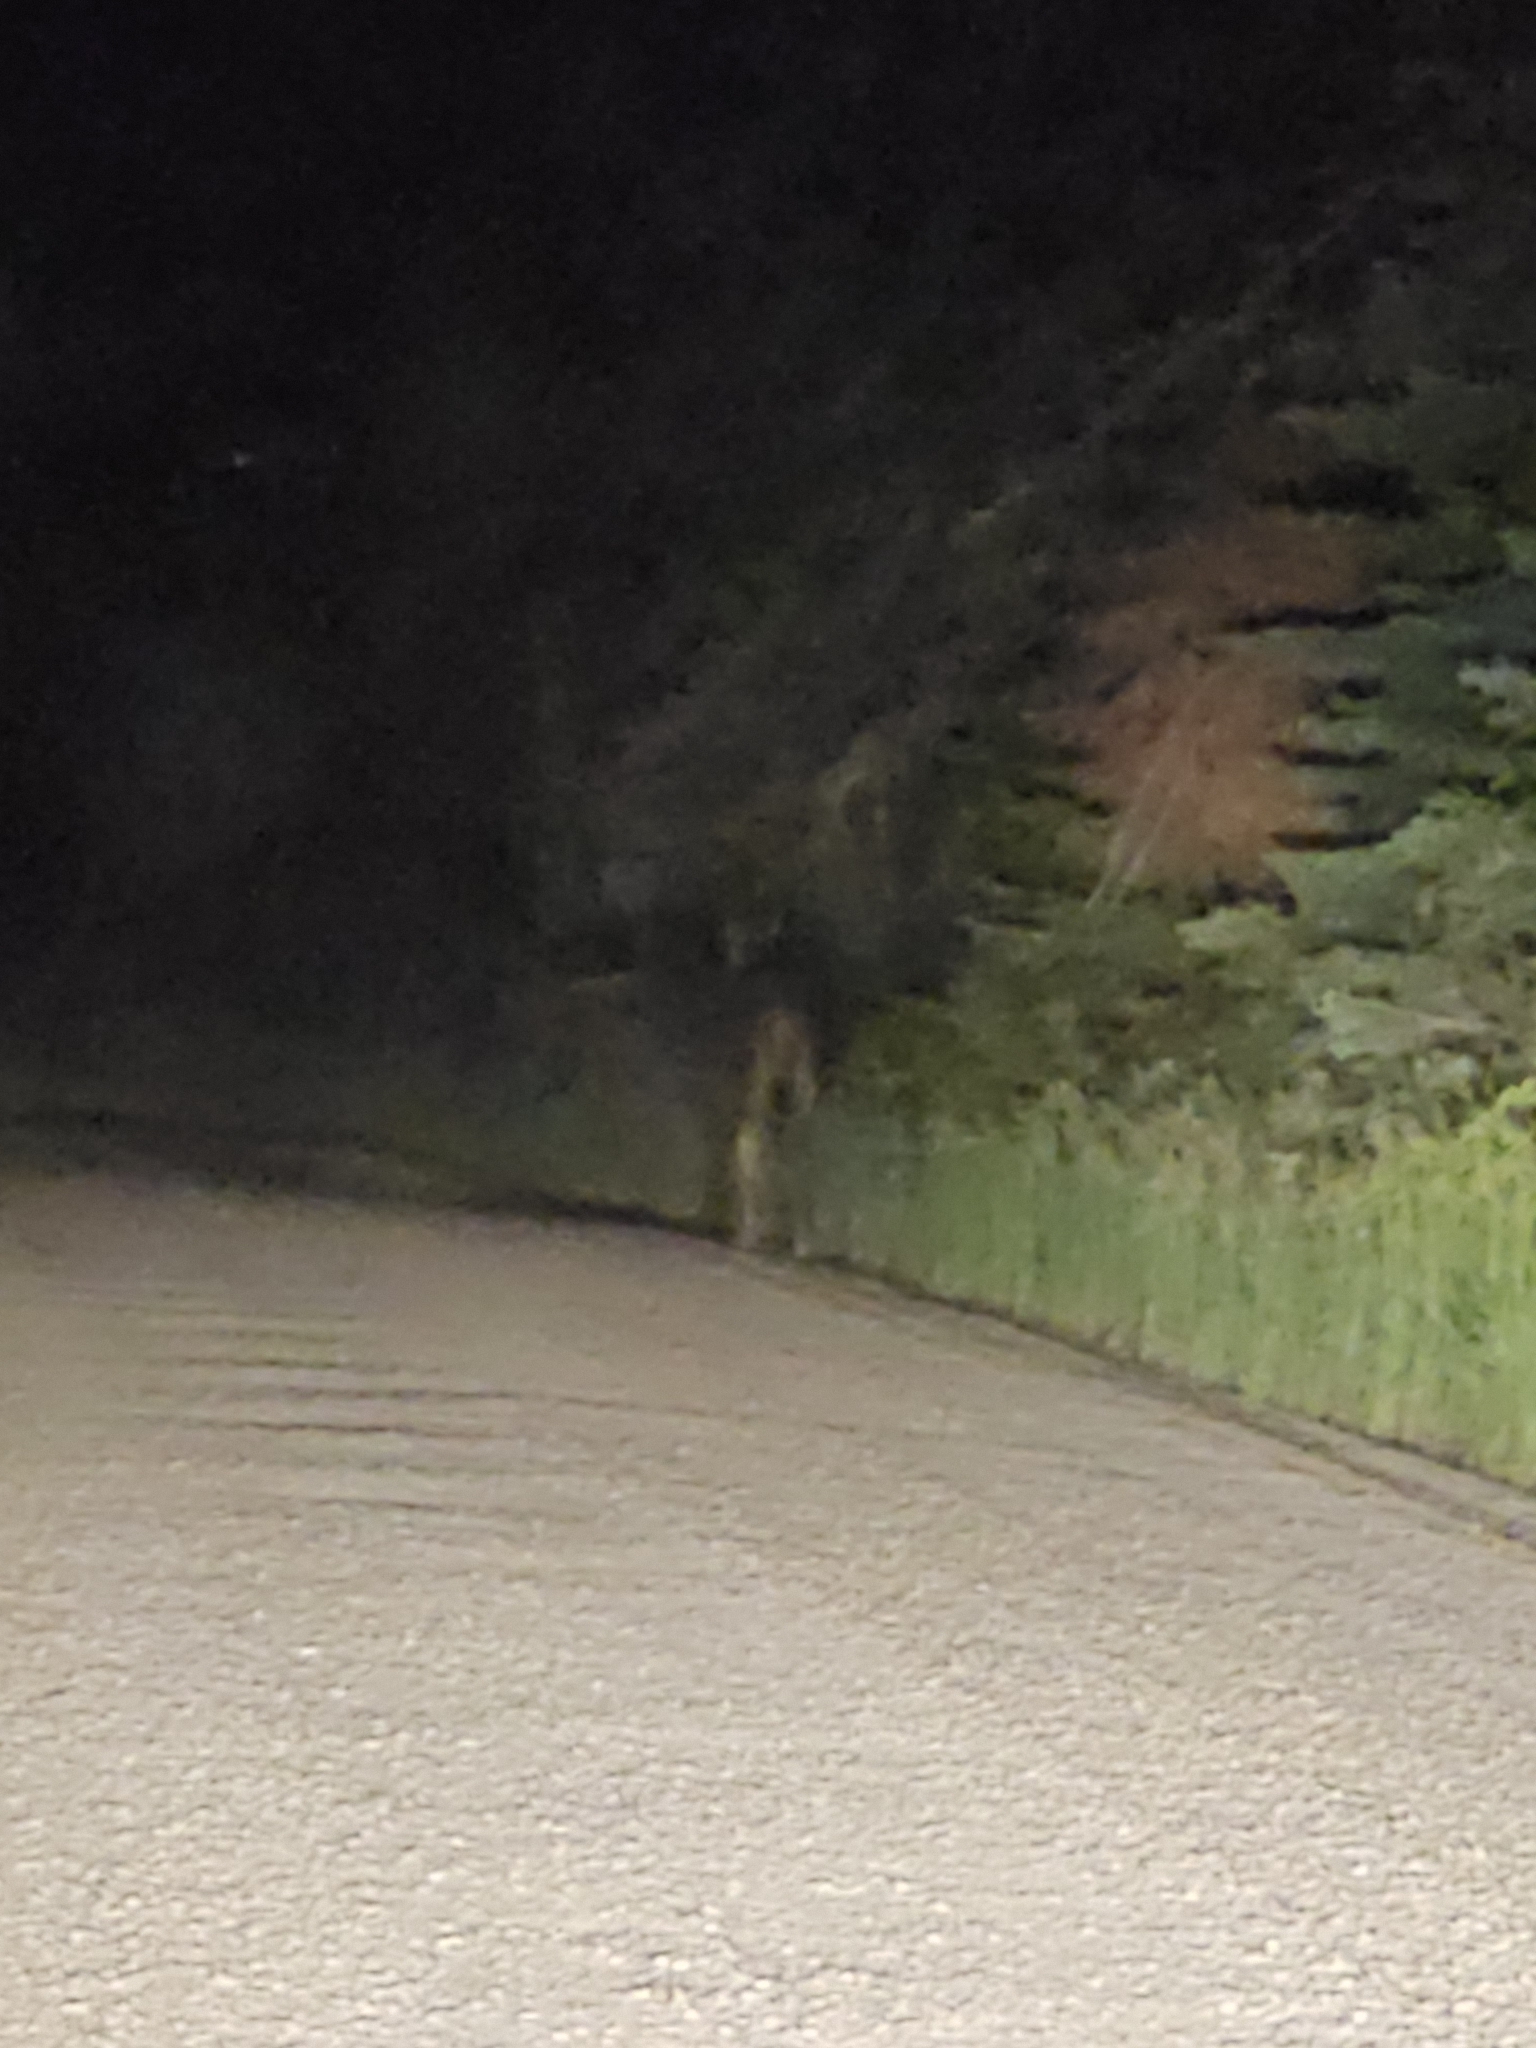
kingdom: Animalia
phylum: Chordata
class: Mammalia
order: Artiodactyla
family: Cervidae
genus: Alces
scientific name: Alces alces
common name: Moose
